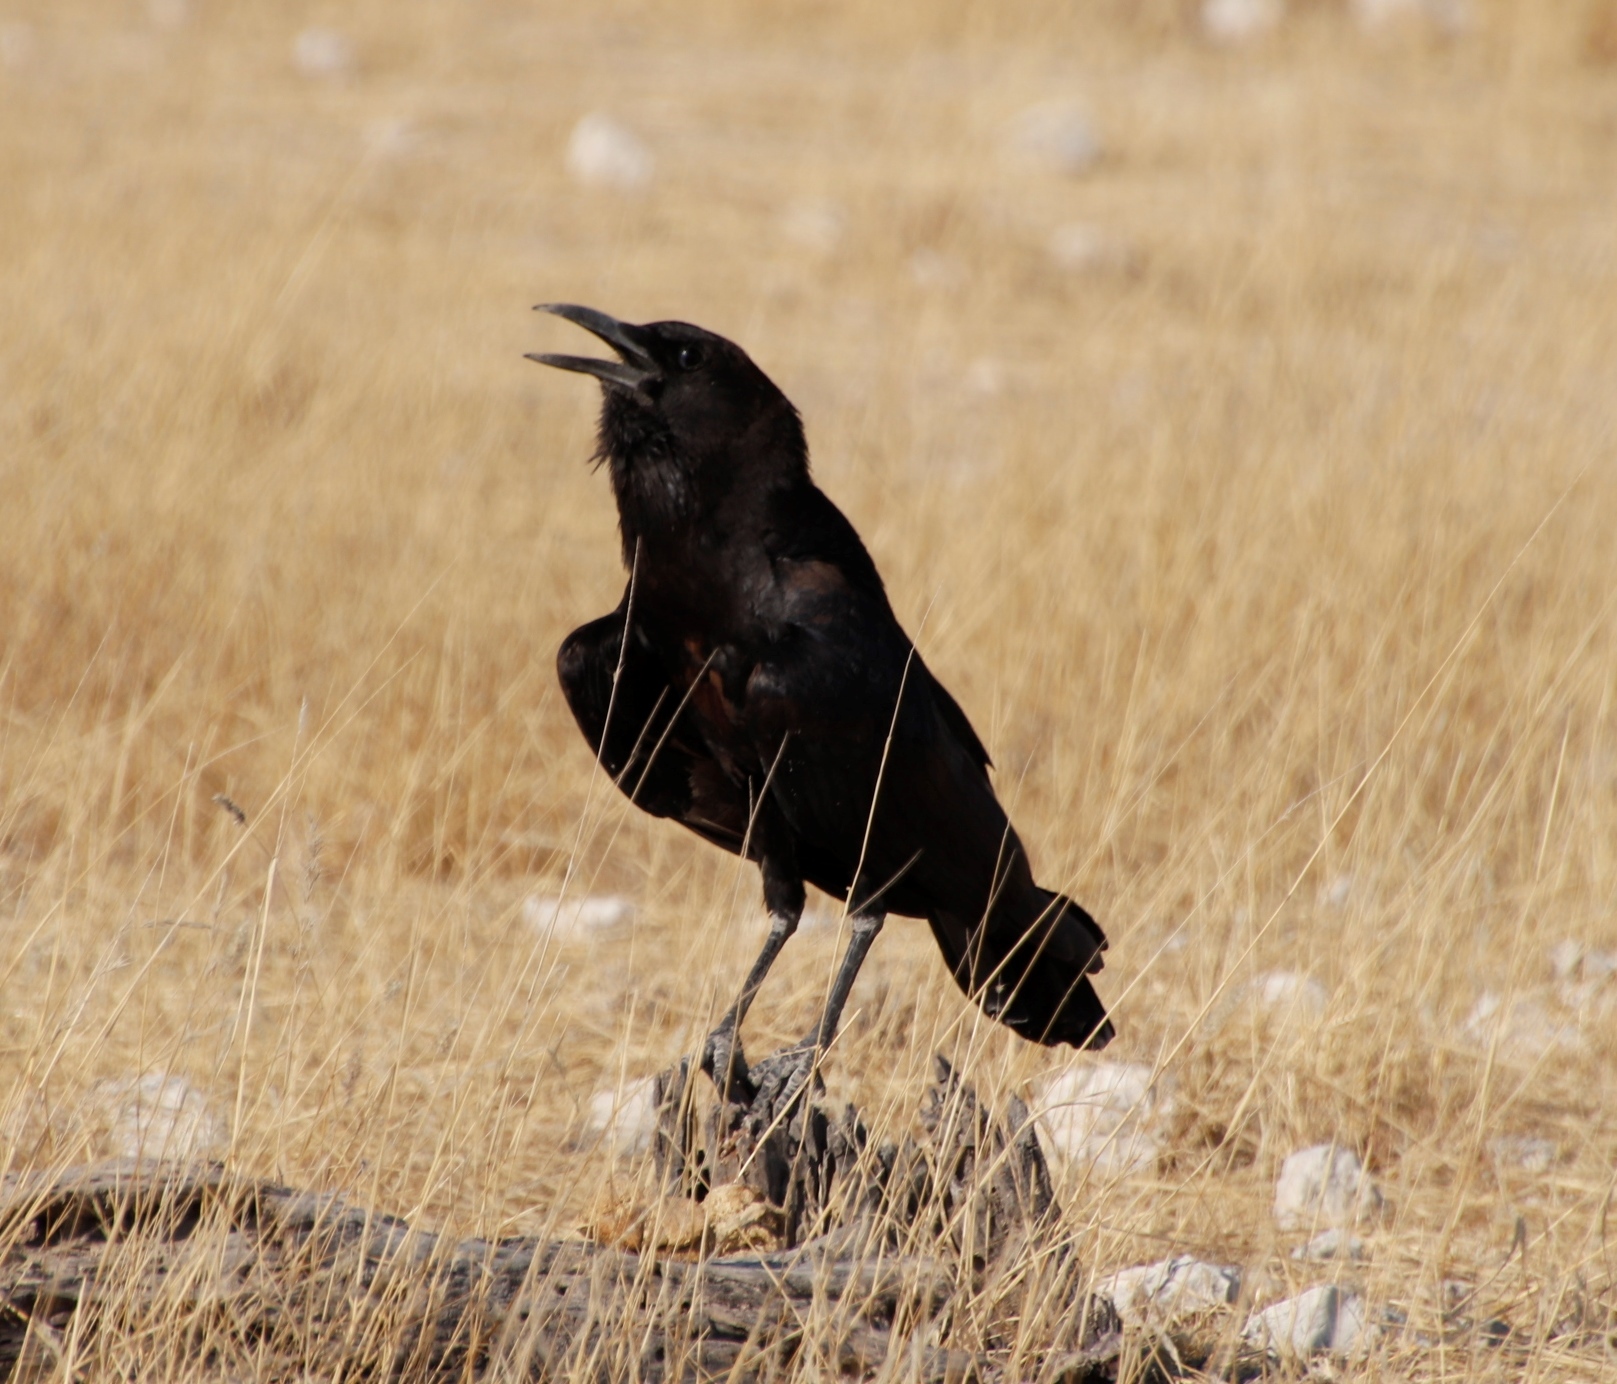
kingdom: Animalia
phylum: Chordata
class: Aves
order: Passeriformes
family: Corvidae
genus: Corvus
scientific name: Corvus capensis
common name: Cape crow
